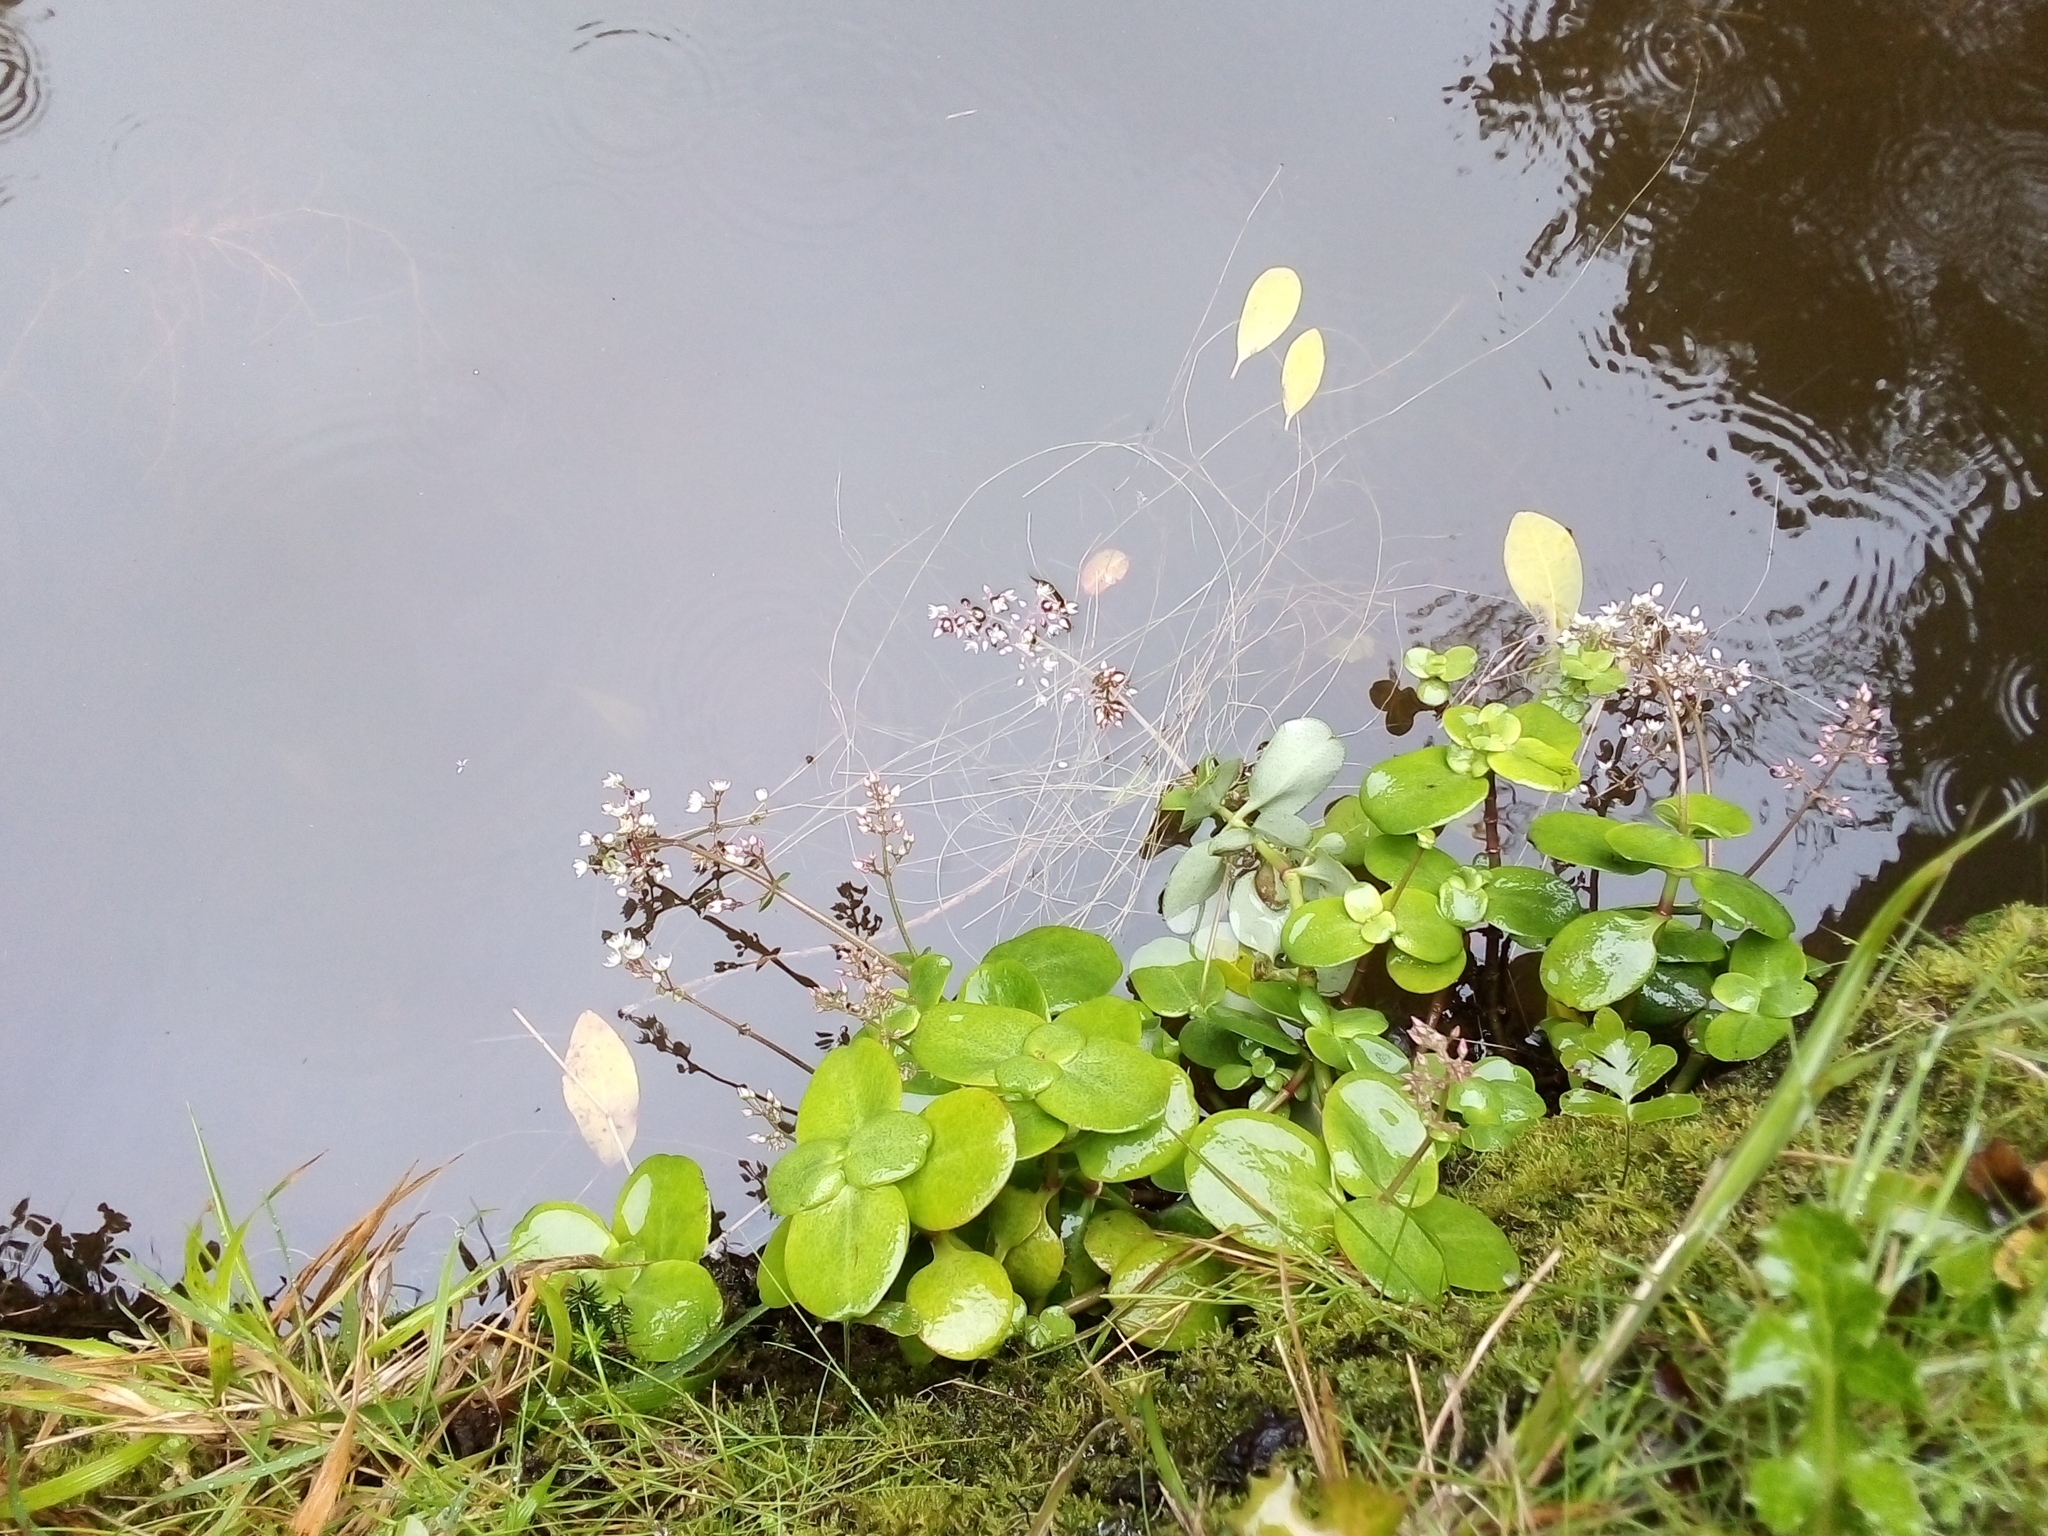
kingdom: Plantae
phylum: Tracheophyta
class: Magnoliopsida
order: Saxifragales
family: Crassulaceae
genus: Crassula
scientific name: Crassula multicava
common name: Cape province pygmyweed
